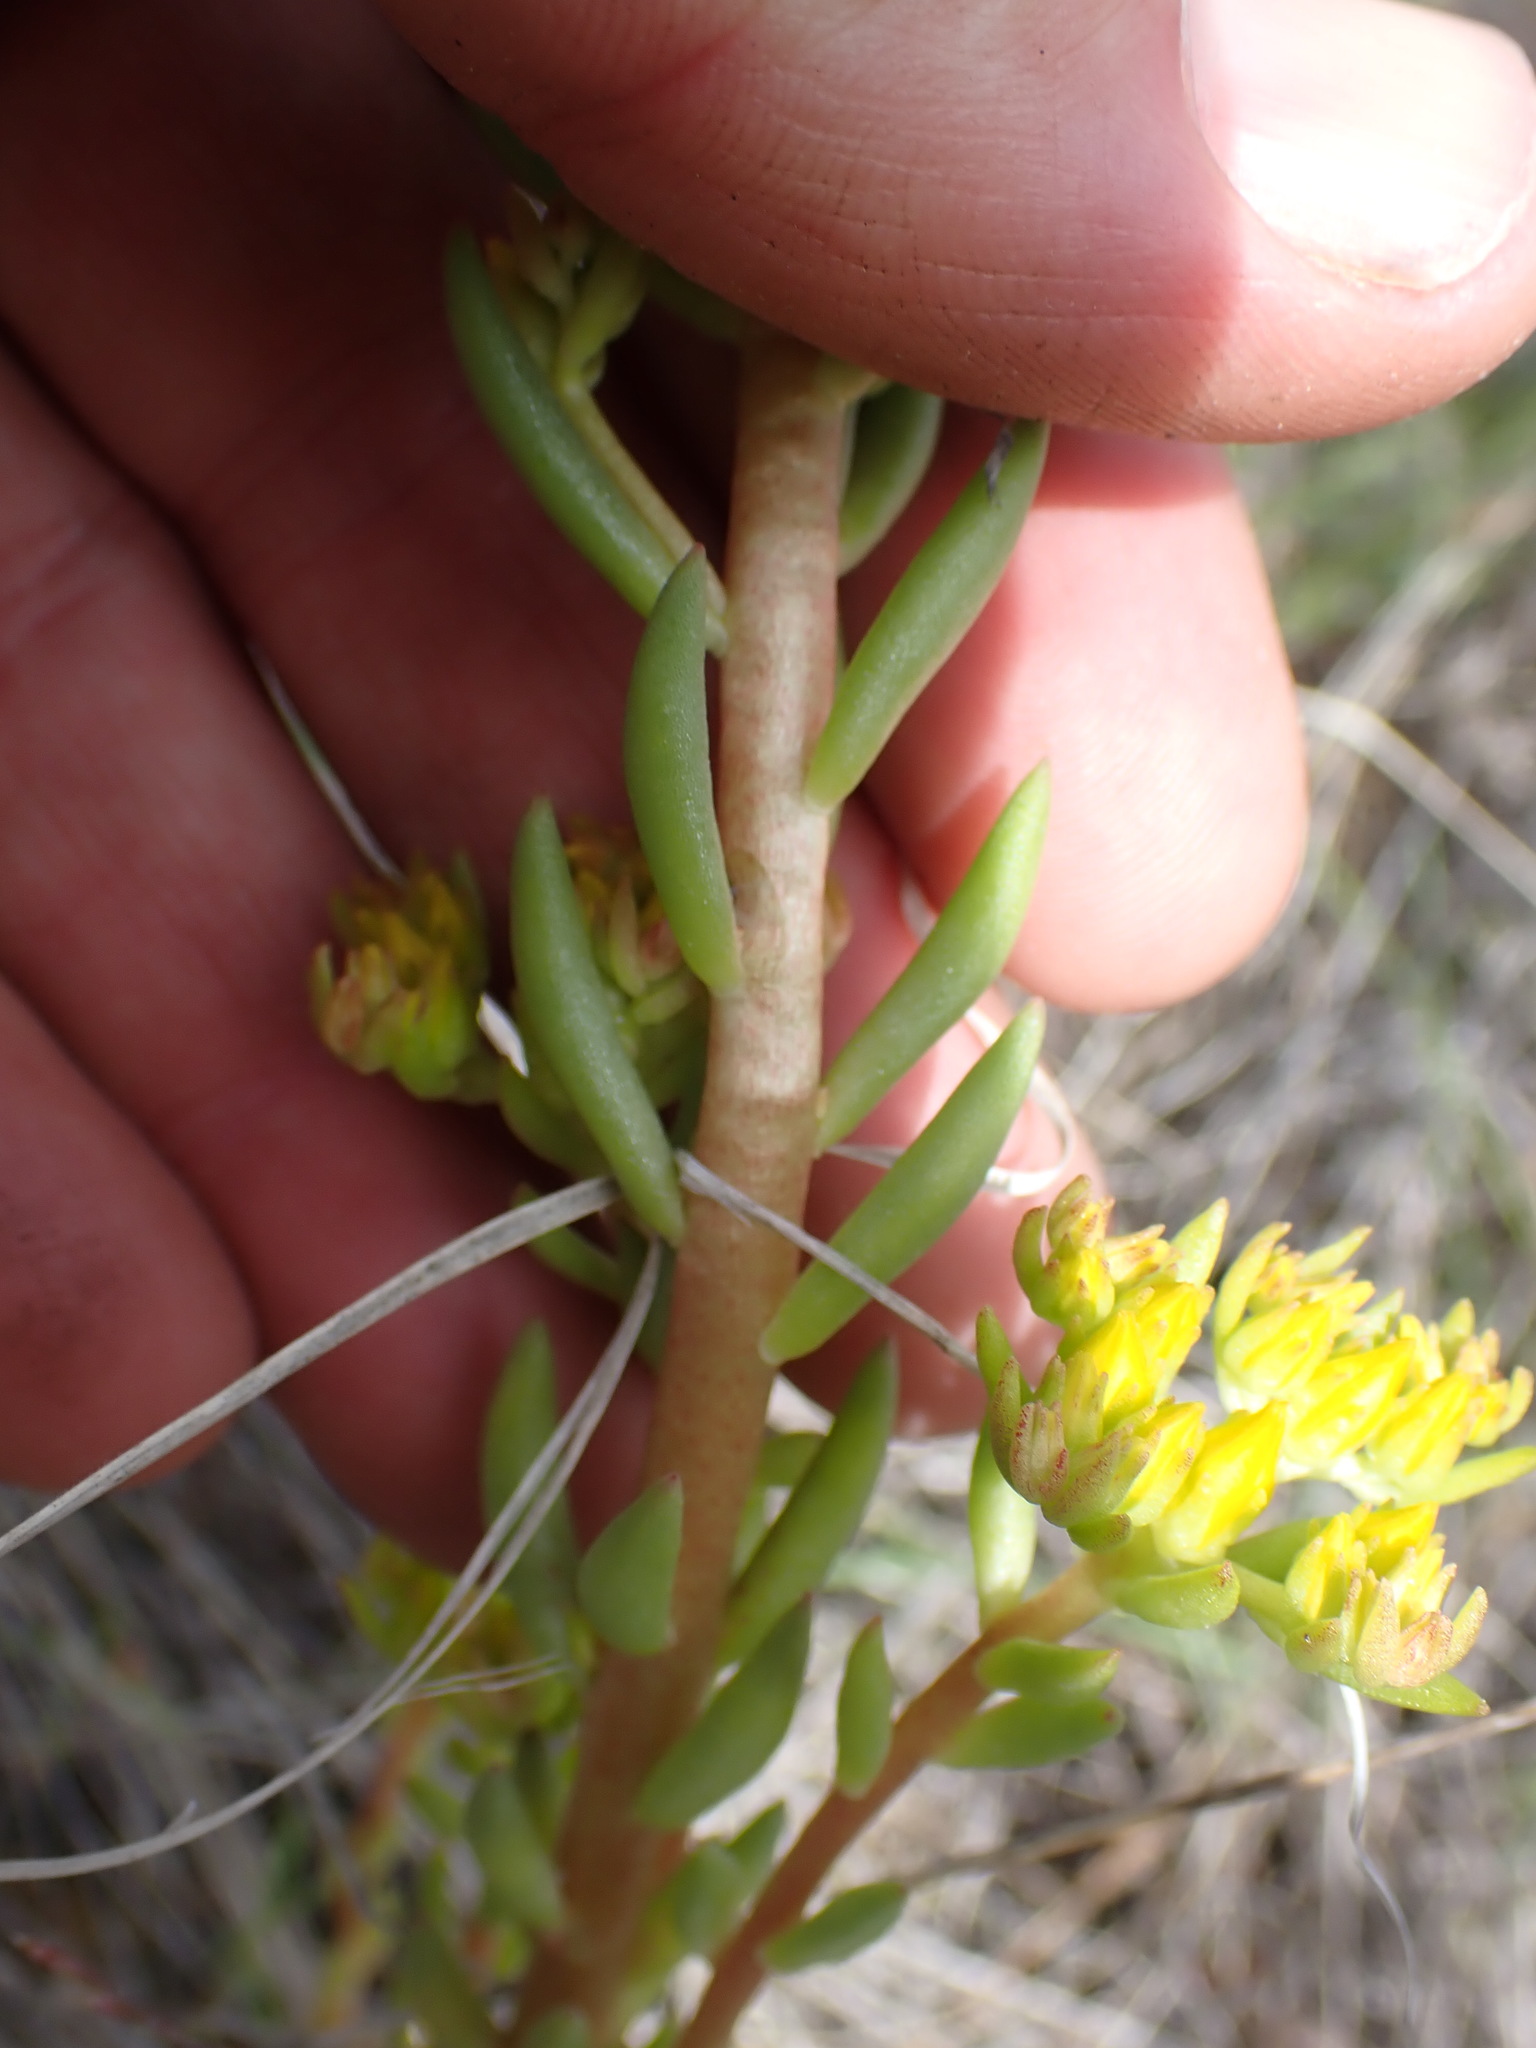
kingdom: Plantae
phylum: Tracheophyta
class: Magnoliopsida
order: Lamiales
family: Plantaginaceae
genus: Penstemon
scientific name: Penstemon procerus
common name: Small-flower penstemon
